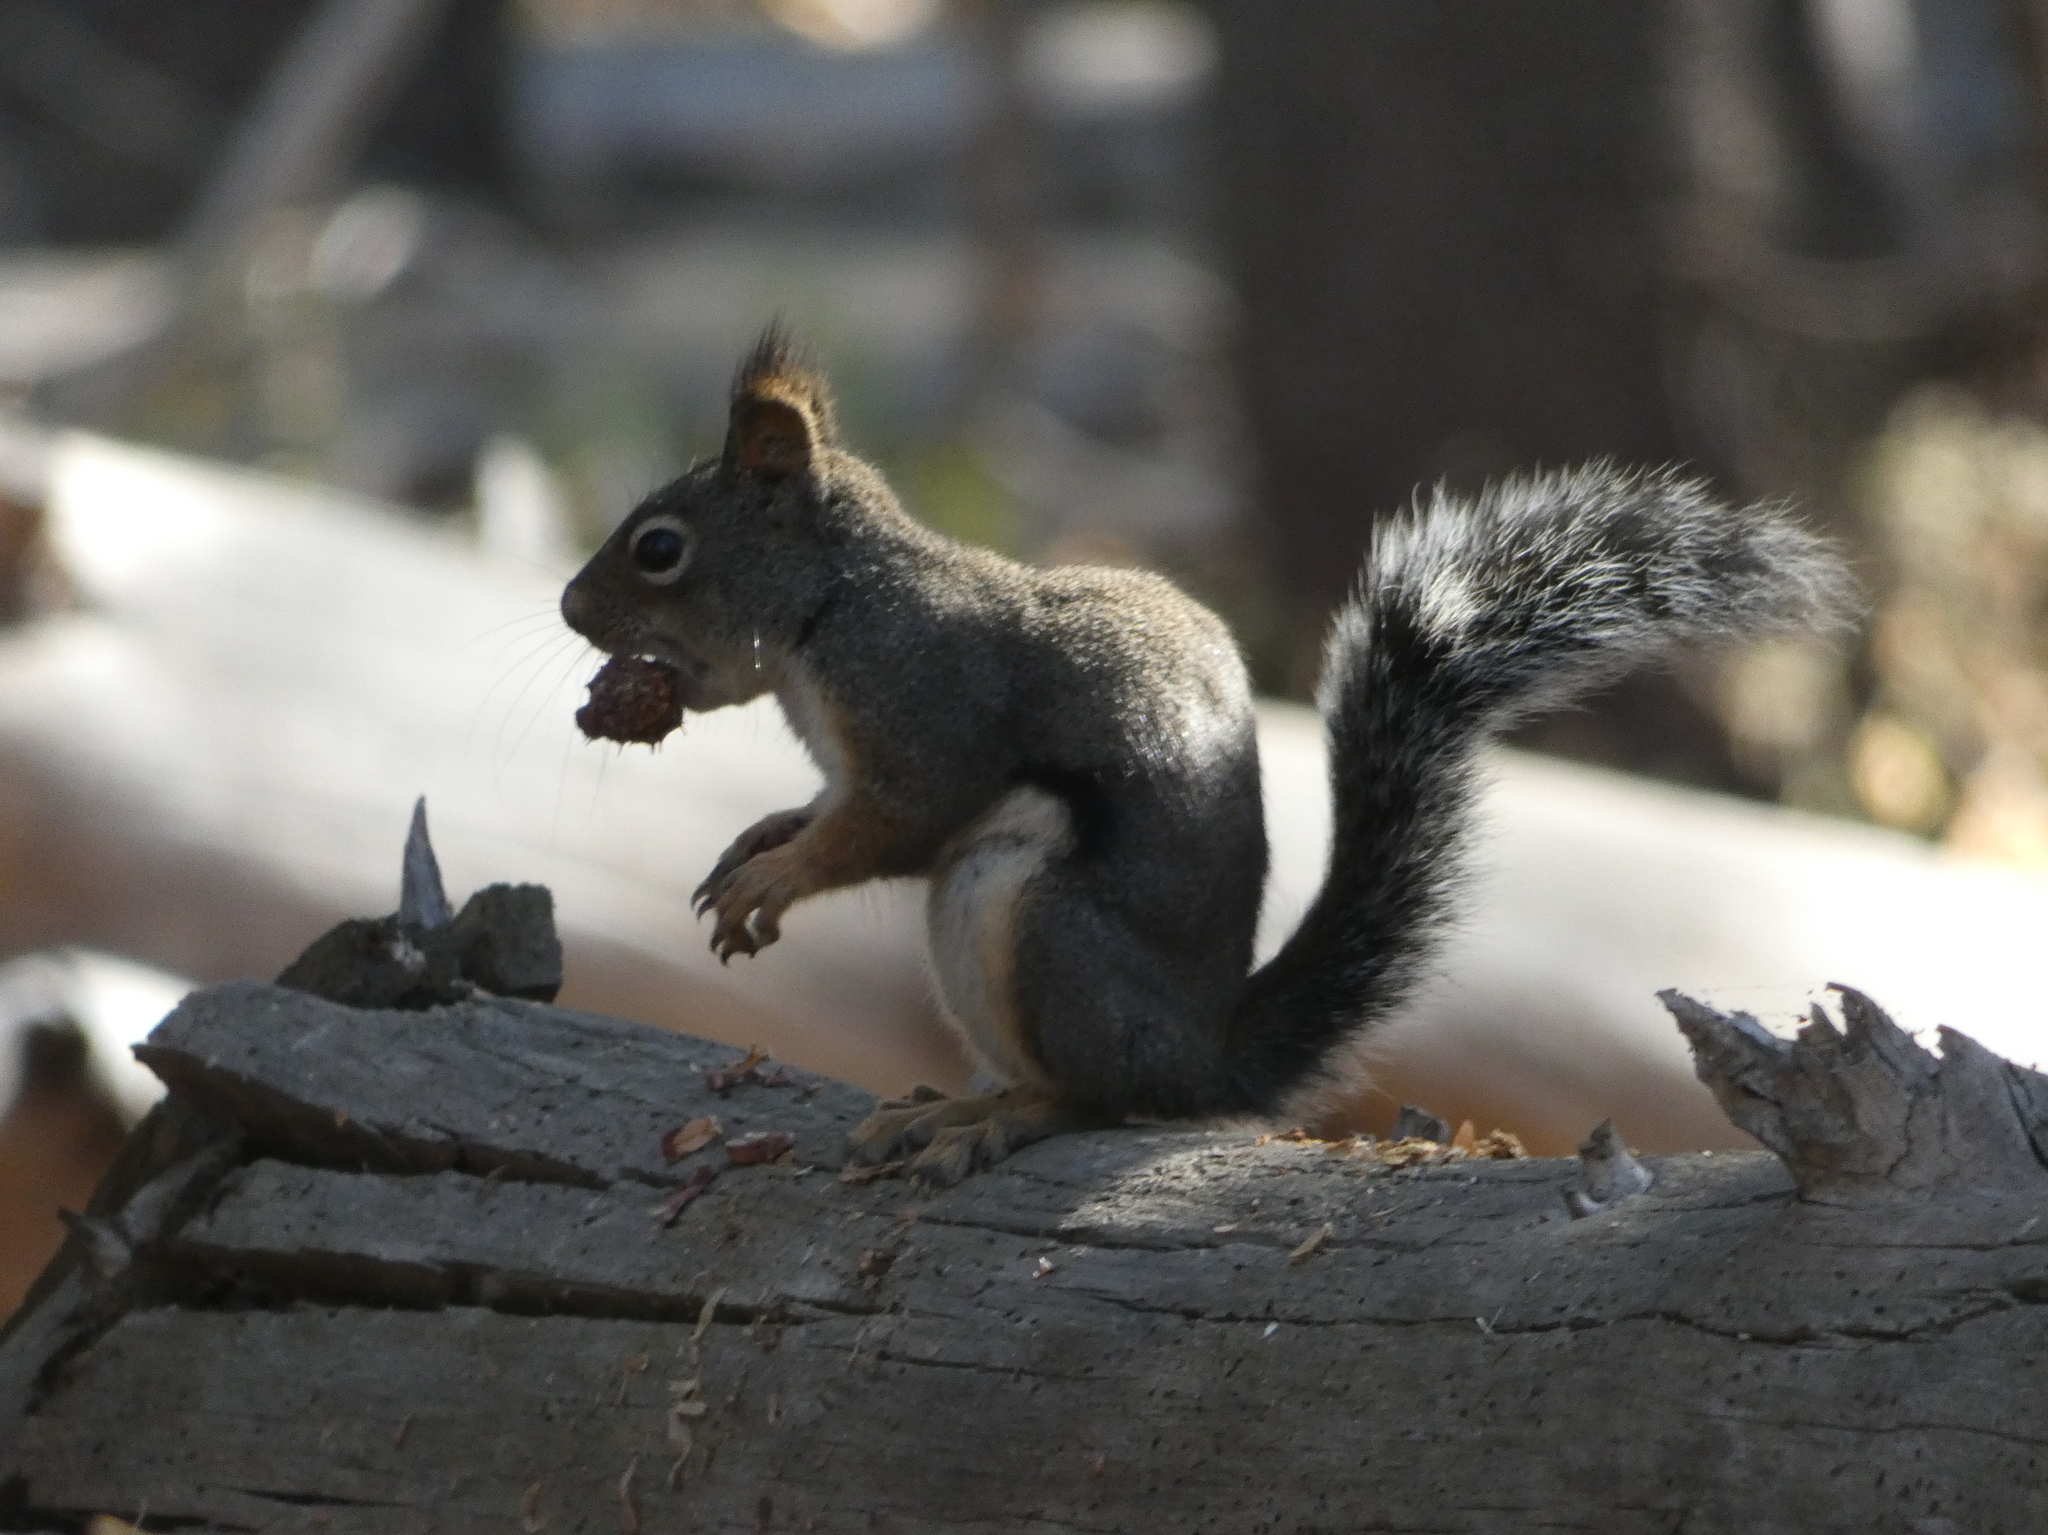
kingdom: Animalia
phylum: Chordata
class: Mammalia
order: Rodentia
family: Sciuridae
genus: Tamiasciurus
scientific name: Tamiasciurus douglasii
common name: Douglas's squirrel
